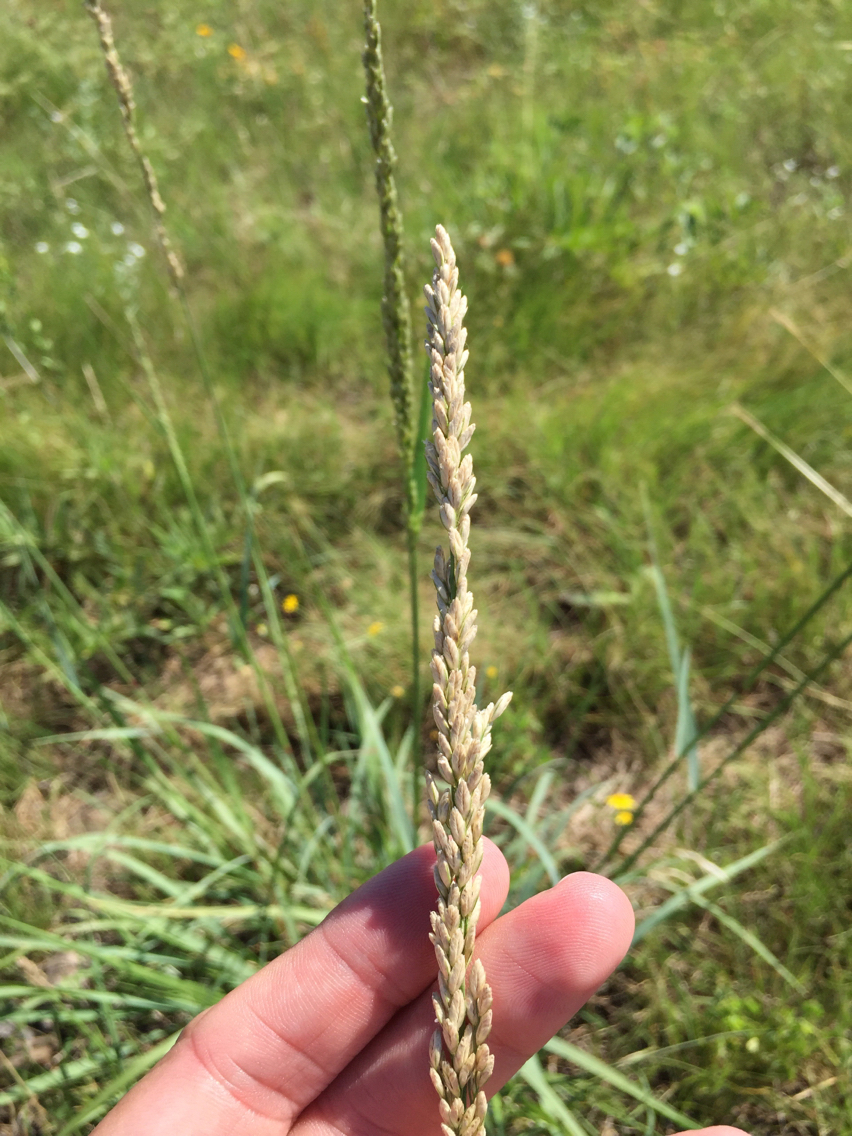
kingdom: Plantae
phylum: Tracheophyta
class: Liliopsida
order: Poales
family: Poaceae
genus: Tridens
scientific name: Tridens albescens
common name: White tridens
